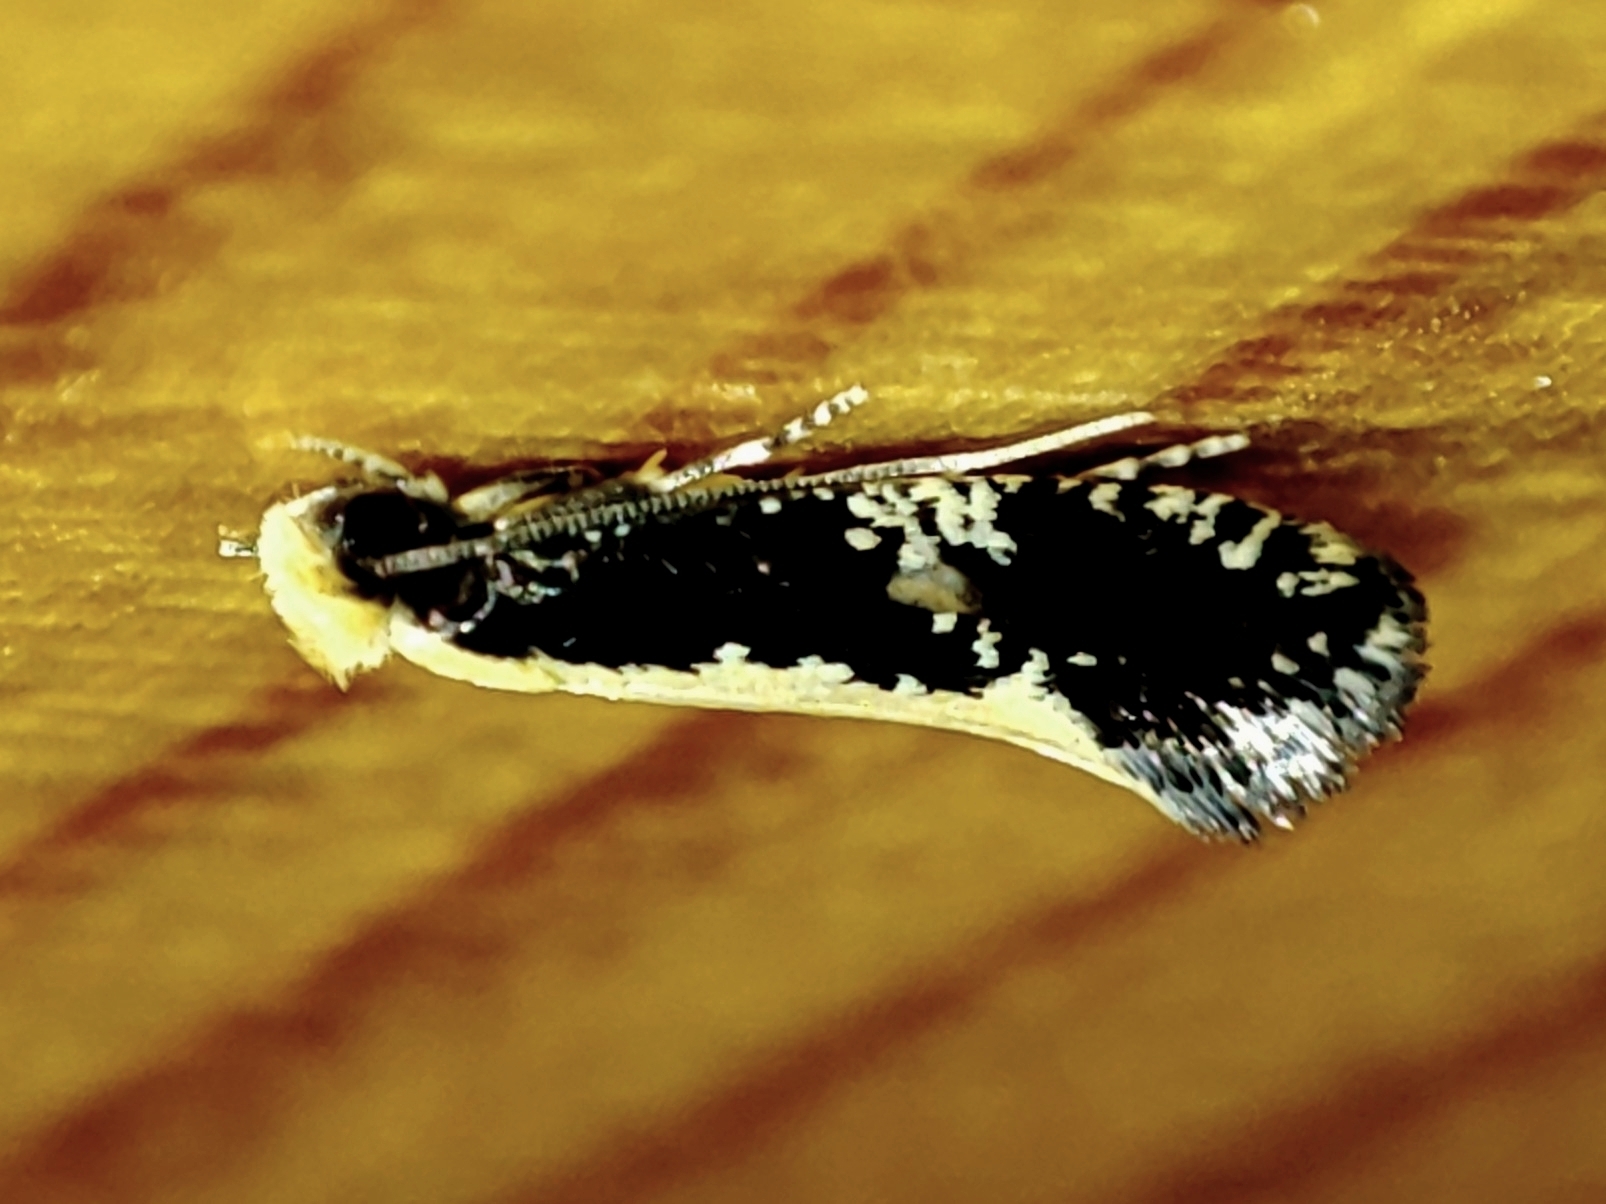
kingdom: Animalia
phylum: Arthropoda
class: Insecta
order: Lepidoptera
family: Tineidae
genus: Monopis
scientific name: Monopis obviella
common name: Tineid moth
